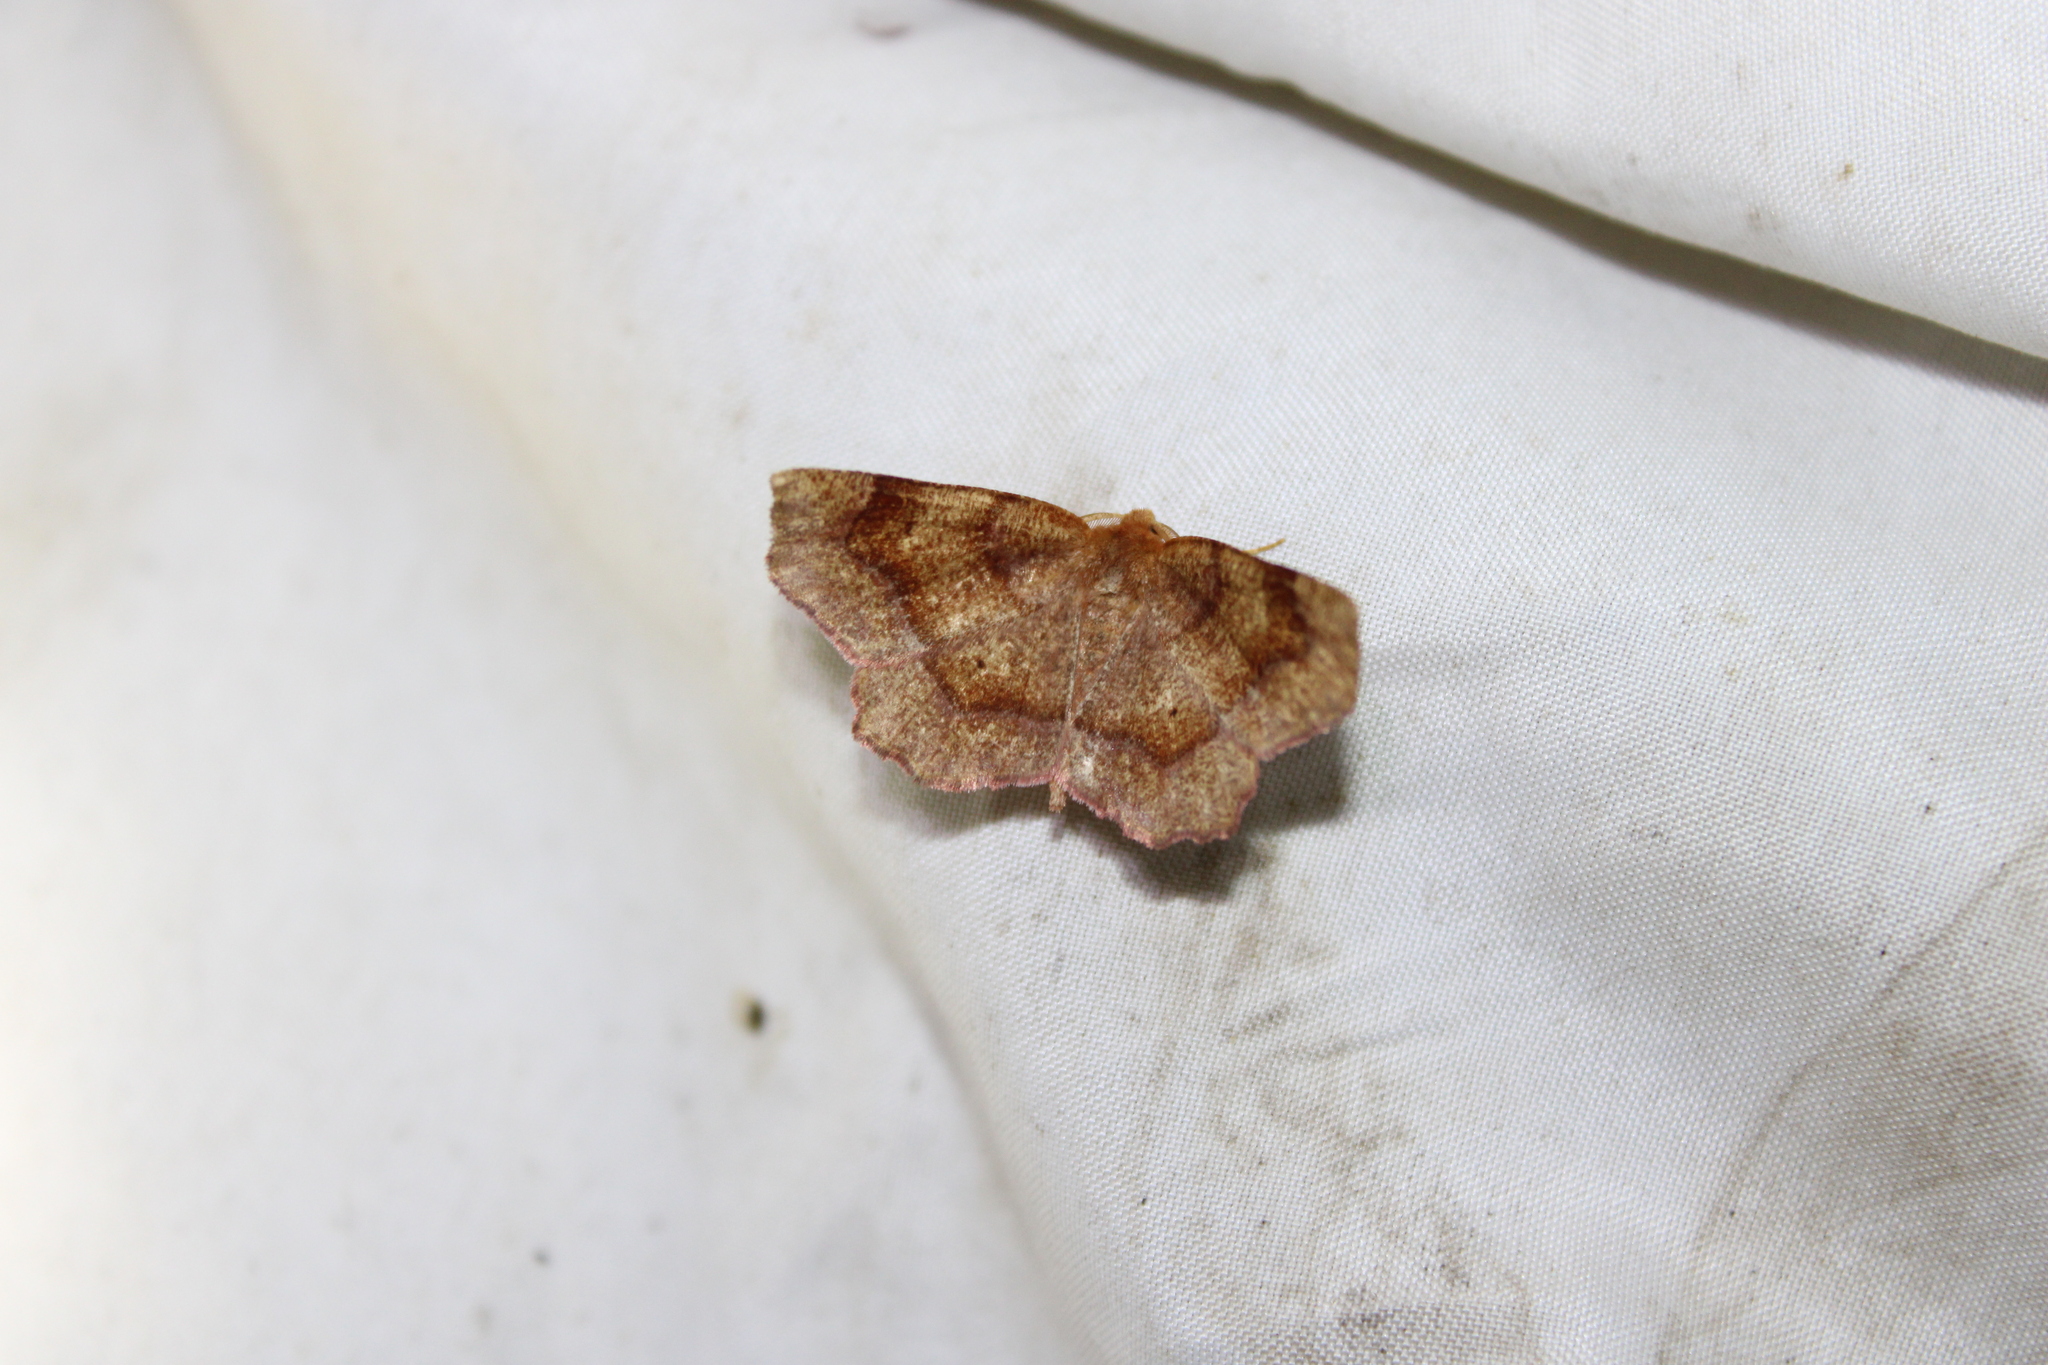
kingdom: Animalia
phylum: Arthropoda
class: Insecta
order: Lepidoptera
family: Geometridae
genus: Metarranthis
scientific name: Metarranthis hypochraria
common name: Common metarranthis
